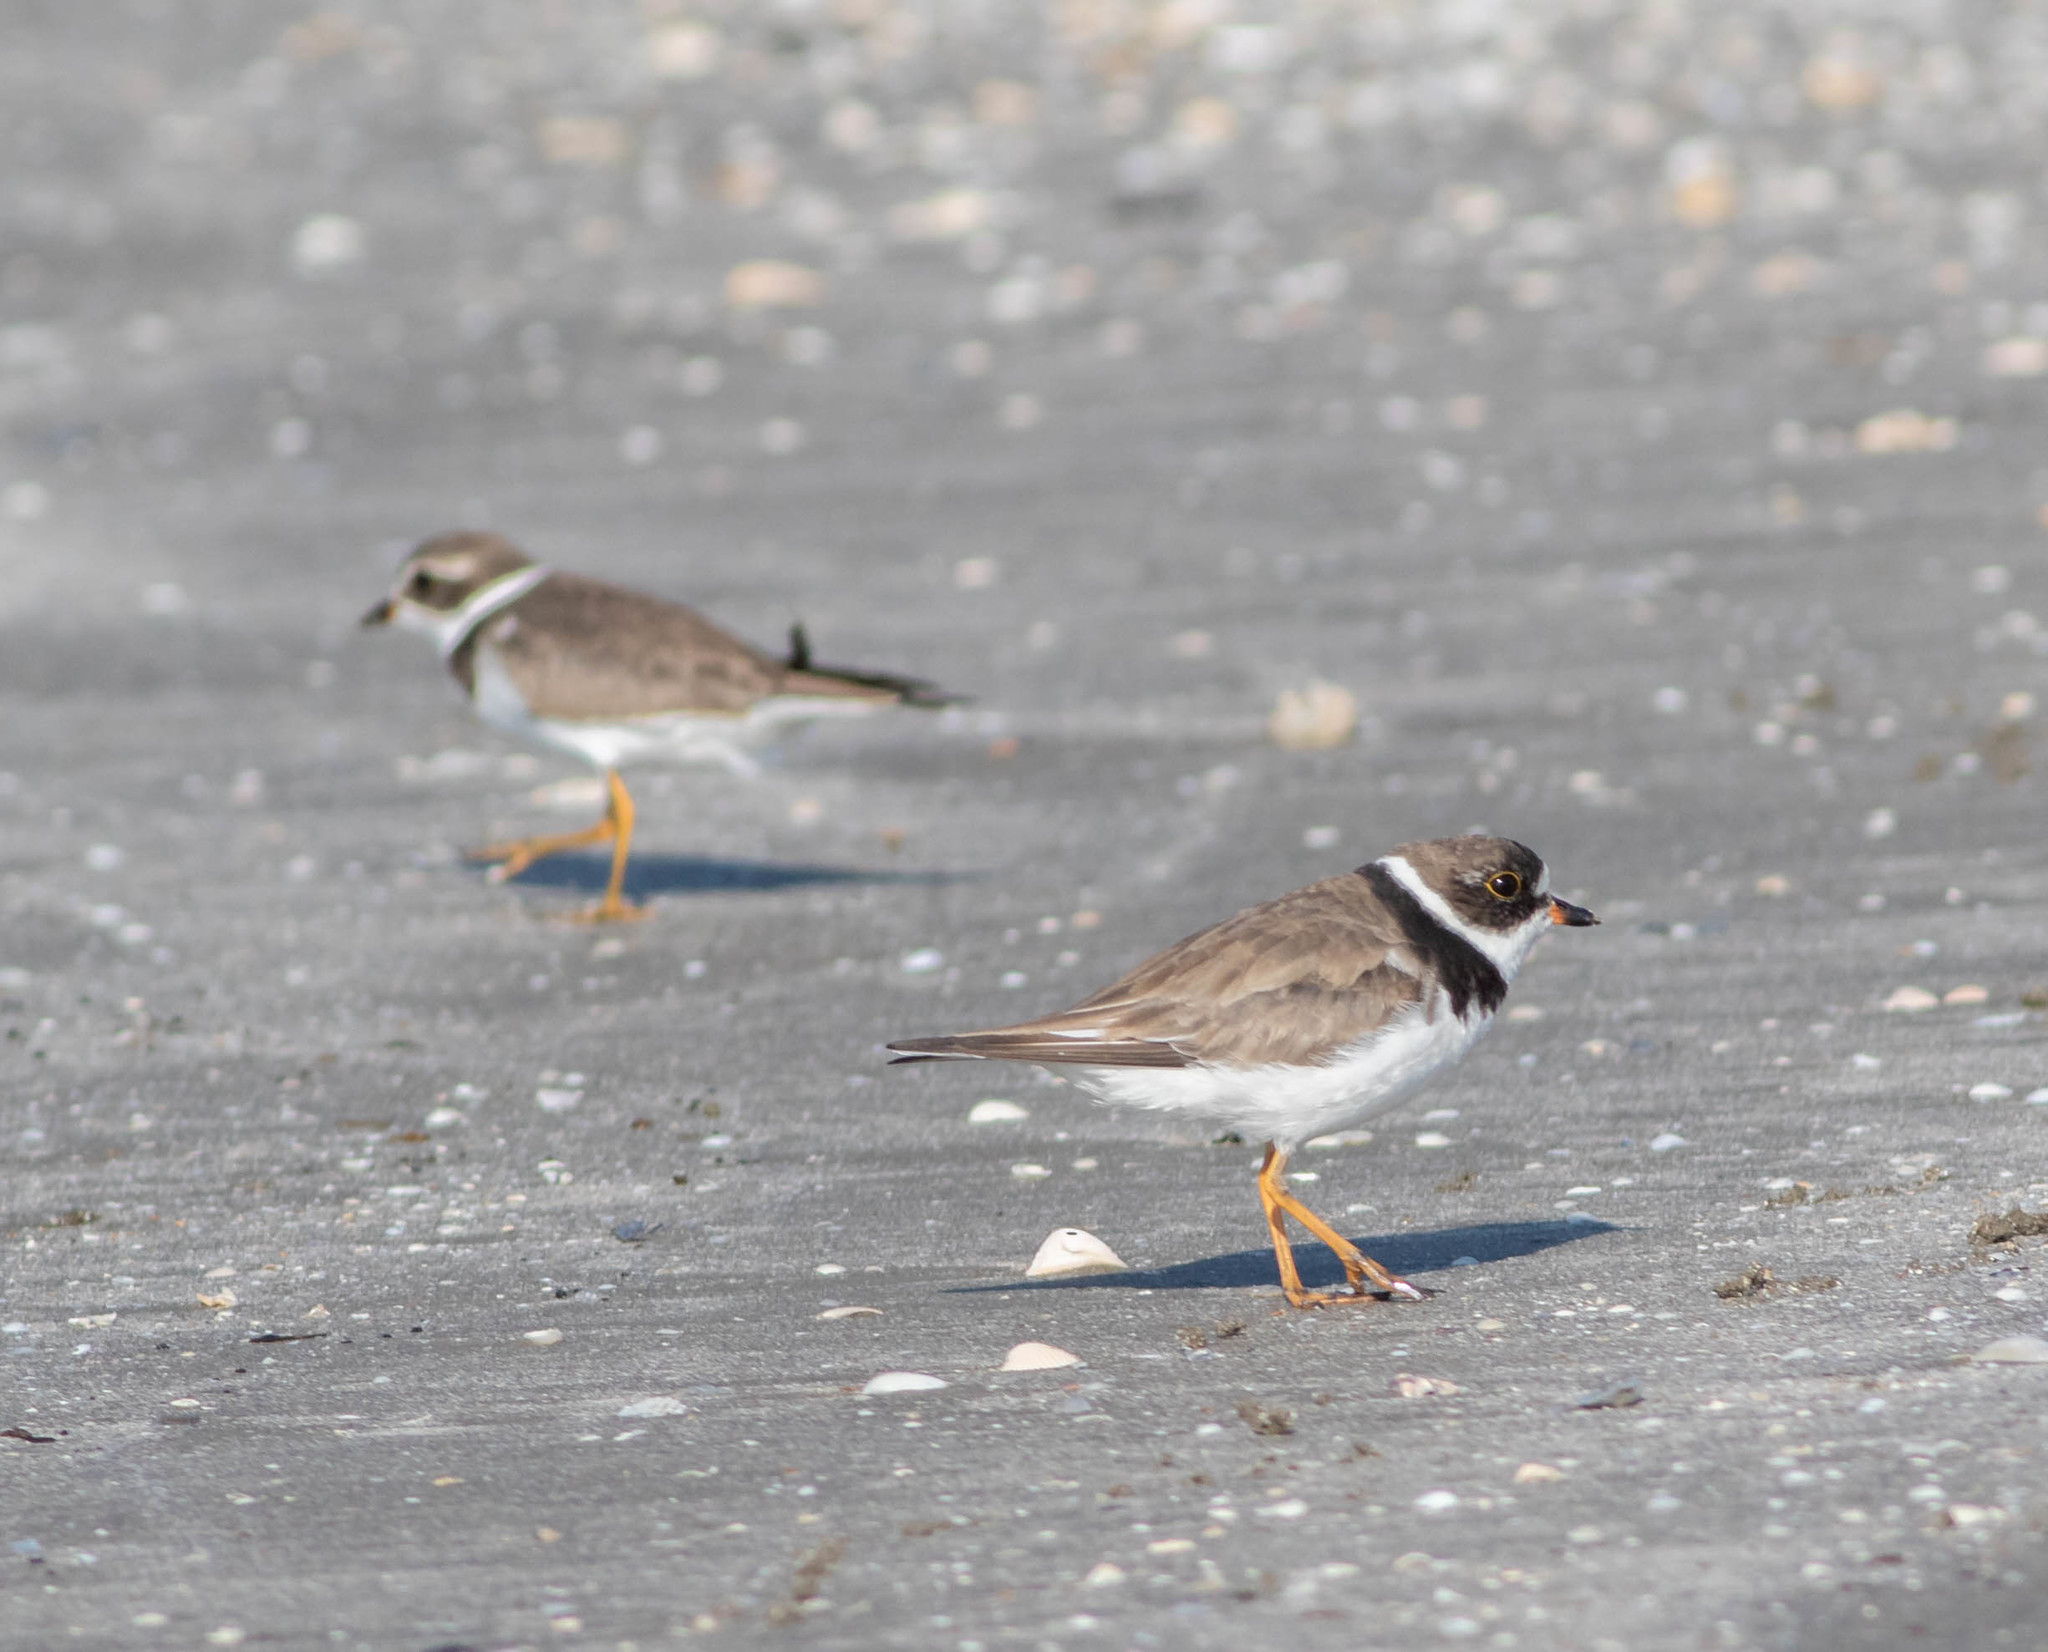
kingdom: Animalia
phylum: Chordata
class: Aves
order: Charadriiformes
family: Charadriidae
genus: Charadrius
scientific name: Charadrius semipalmatus
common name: Semipalmated plover
